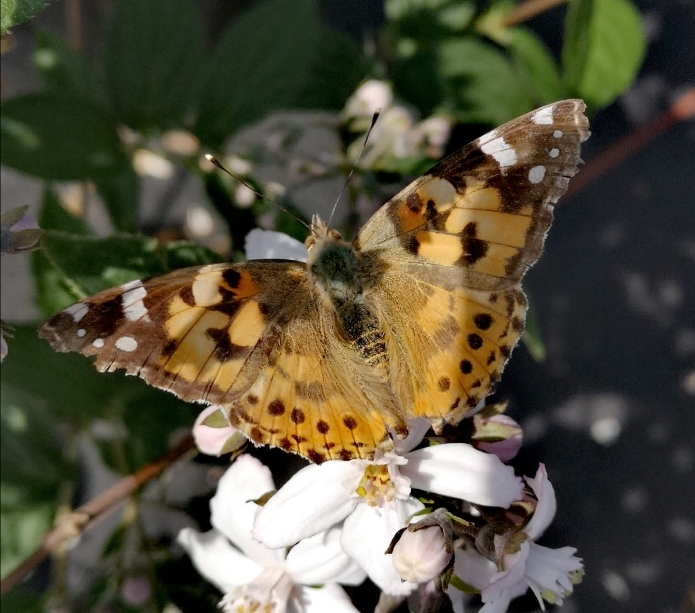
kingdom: Animalia
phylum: Arthropoda
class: Insecta
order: Lepidoptera
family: Nymphalidae
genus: Vanessa
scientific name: Vanessa cardui
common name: Painted lady
